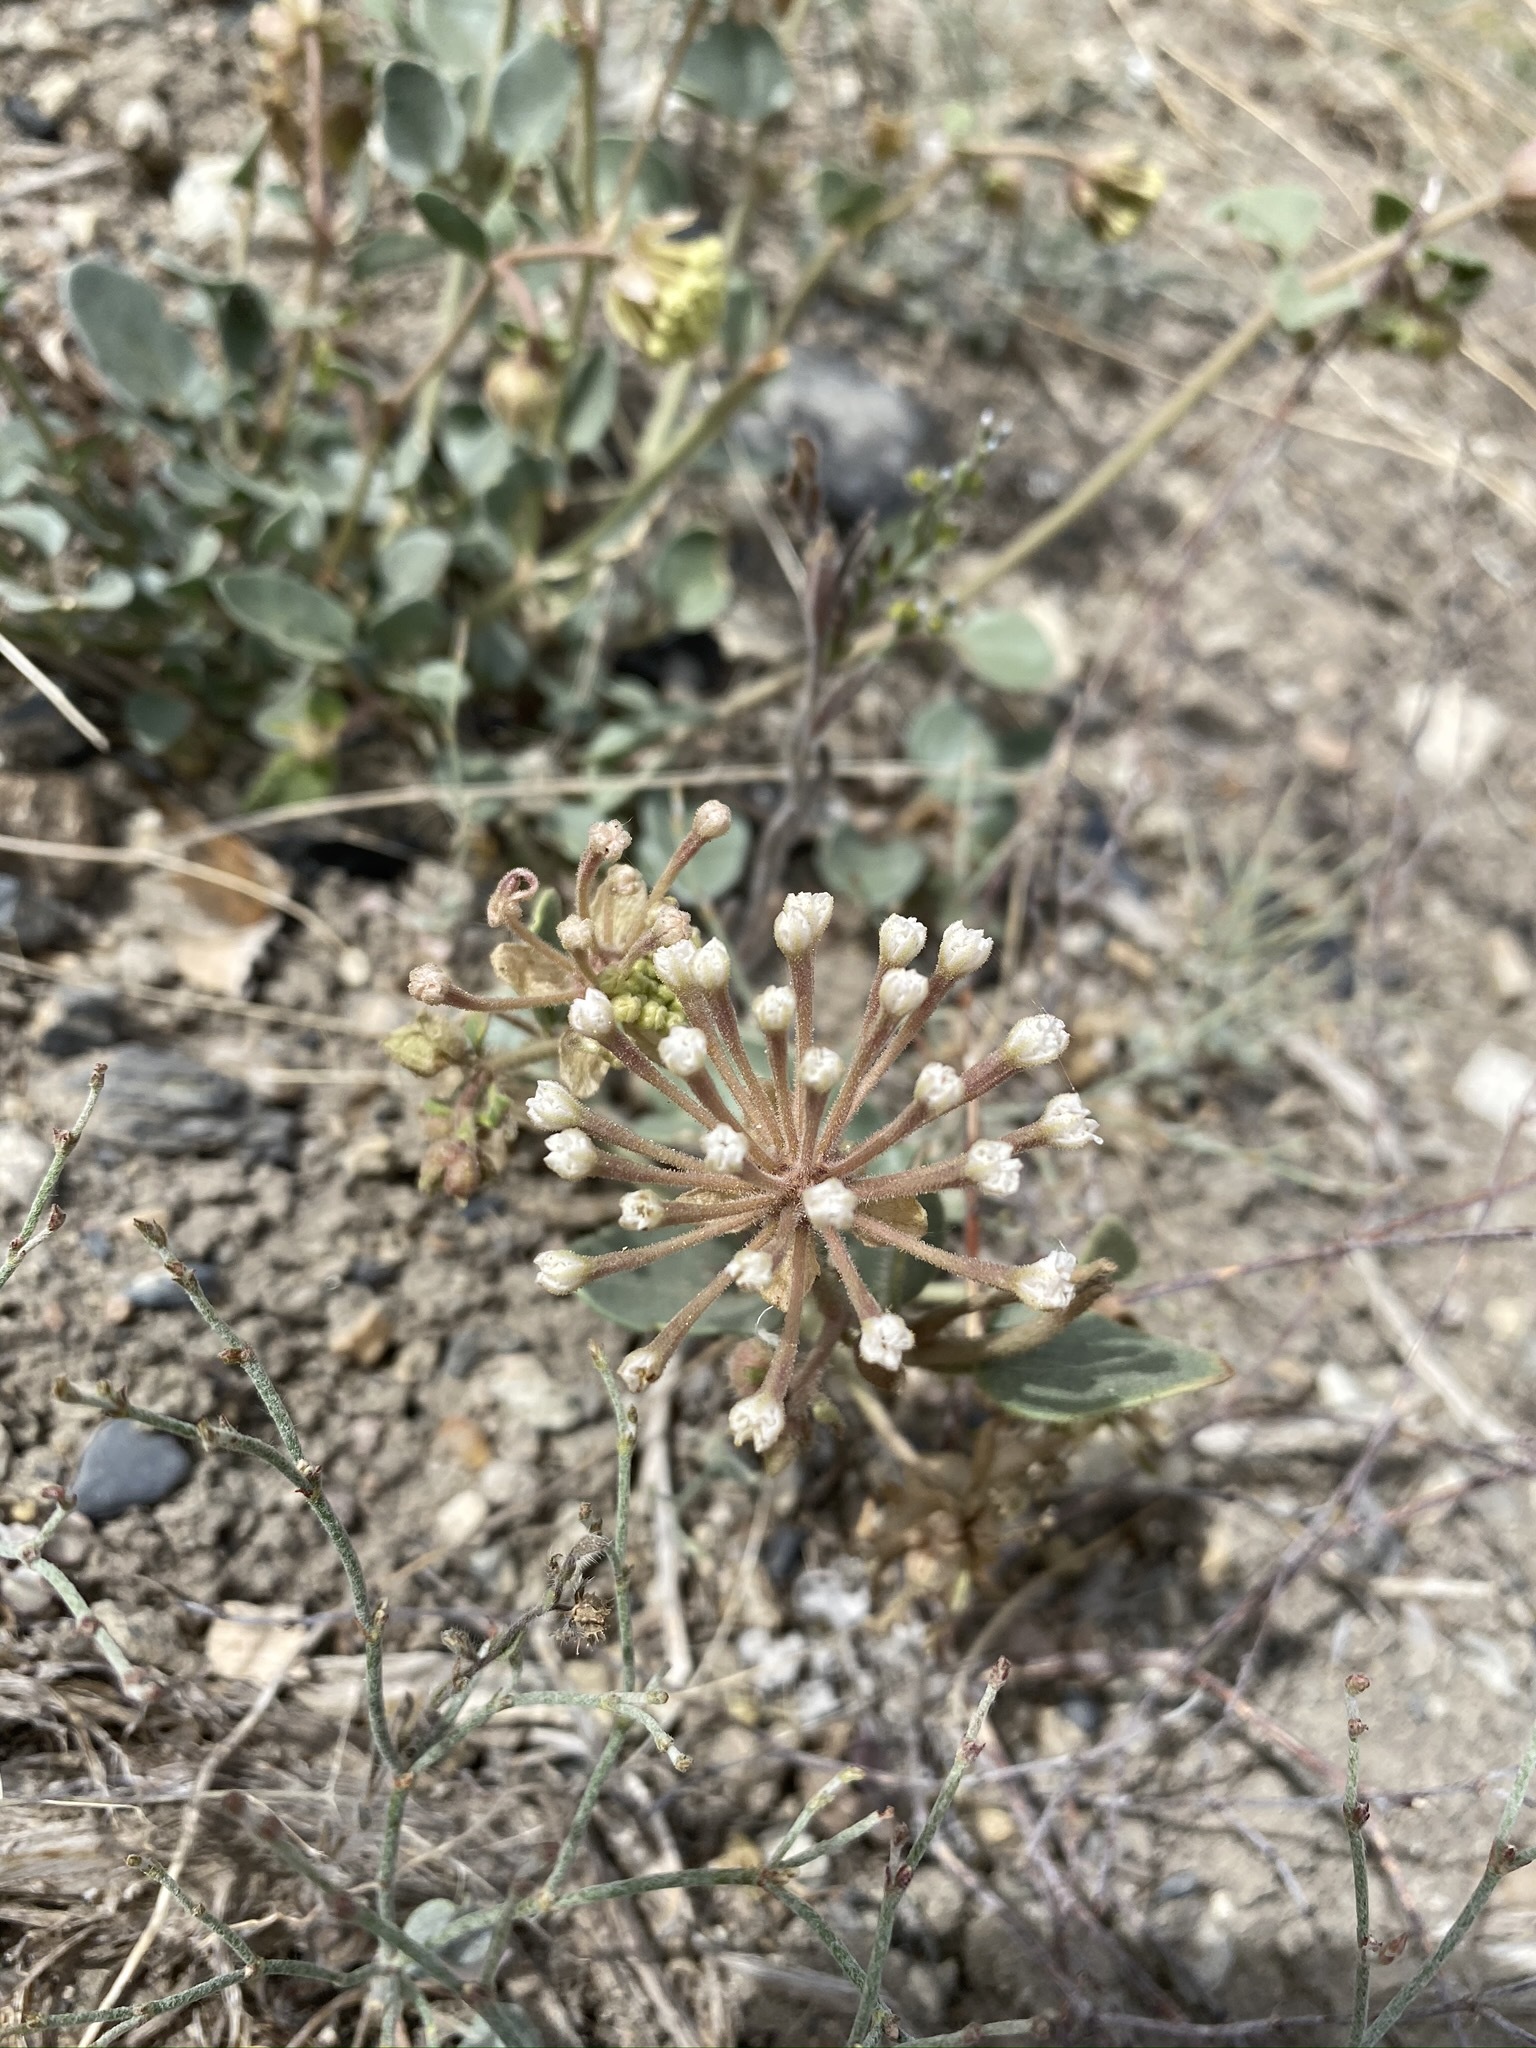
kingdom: Plantae
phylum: Tracheophyta
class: Magnoliopsida
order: Caryophyllales
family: Nyctaginaceae
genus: Abronia
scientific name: Abronia turbinata
